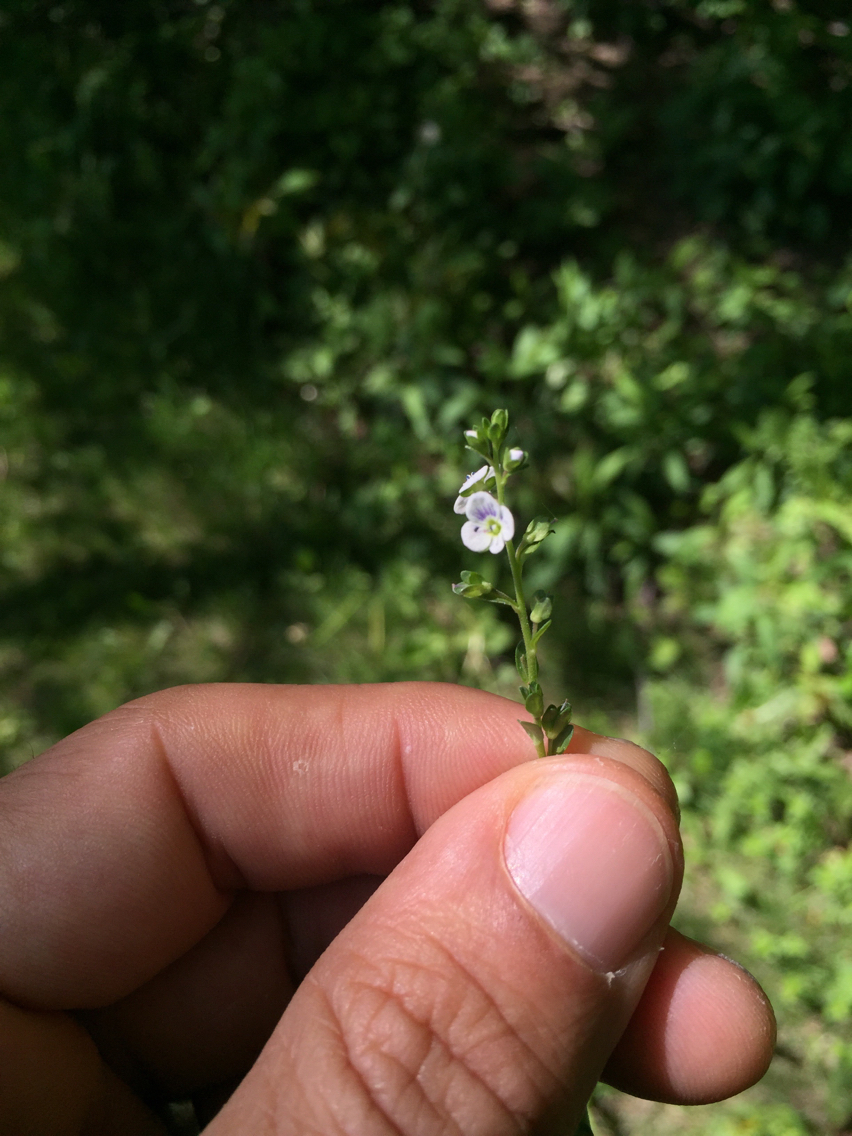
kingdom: Plantae
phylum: Tracheophyta
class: Magnoliopsida
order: Lamiales
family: Plantaginaceae
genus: Veronica
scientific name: Veronica serpyllifolia
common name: Thyme-leaved speedwell
